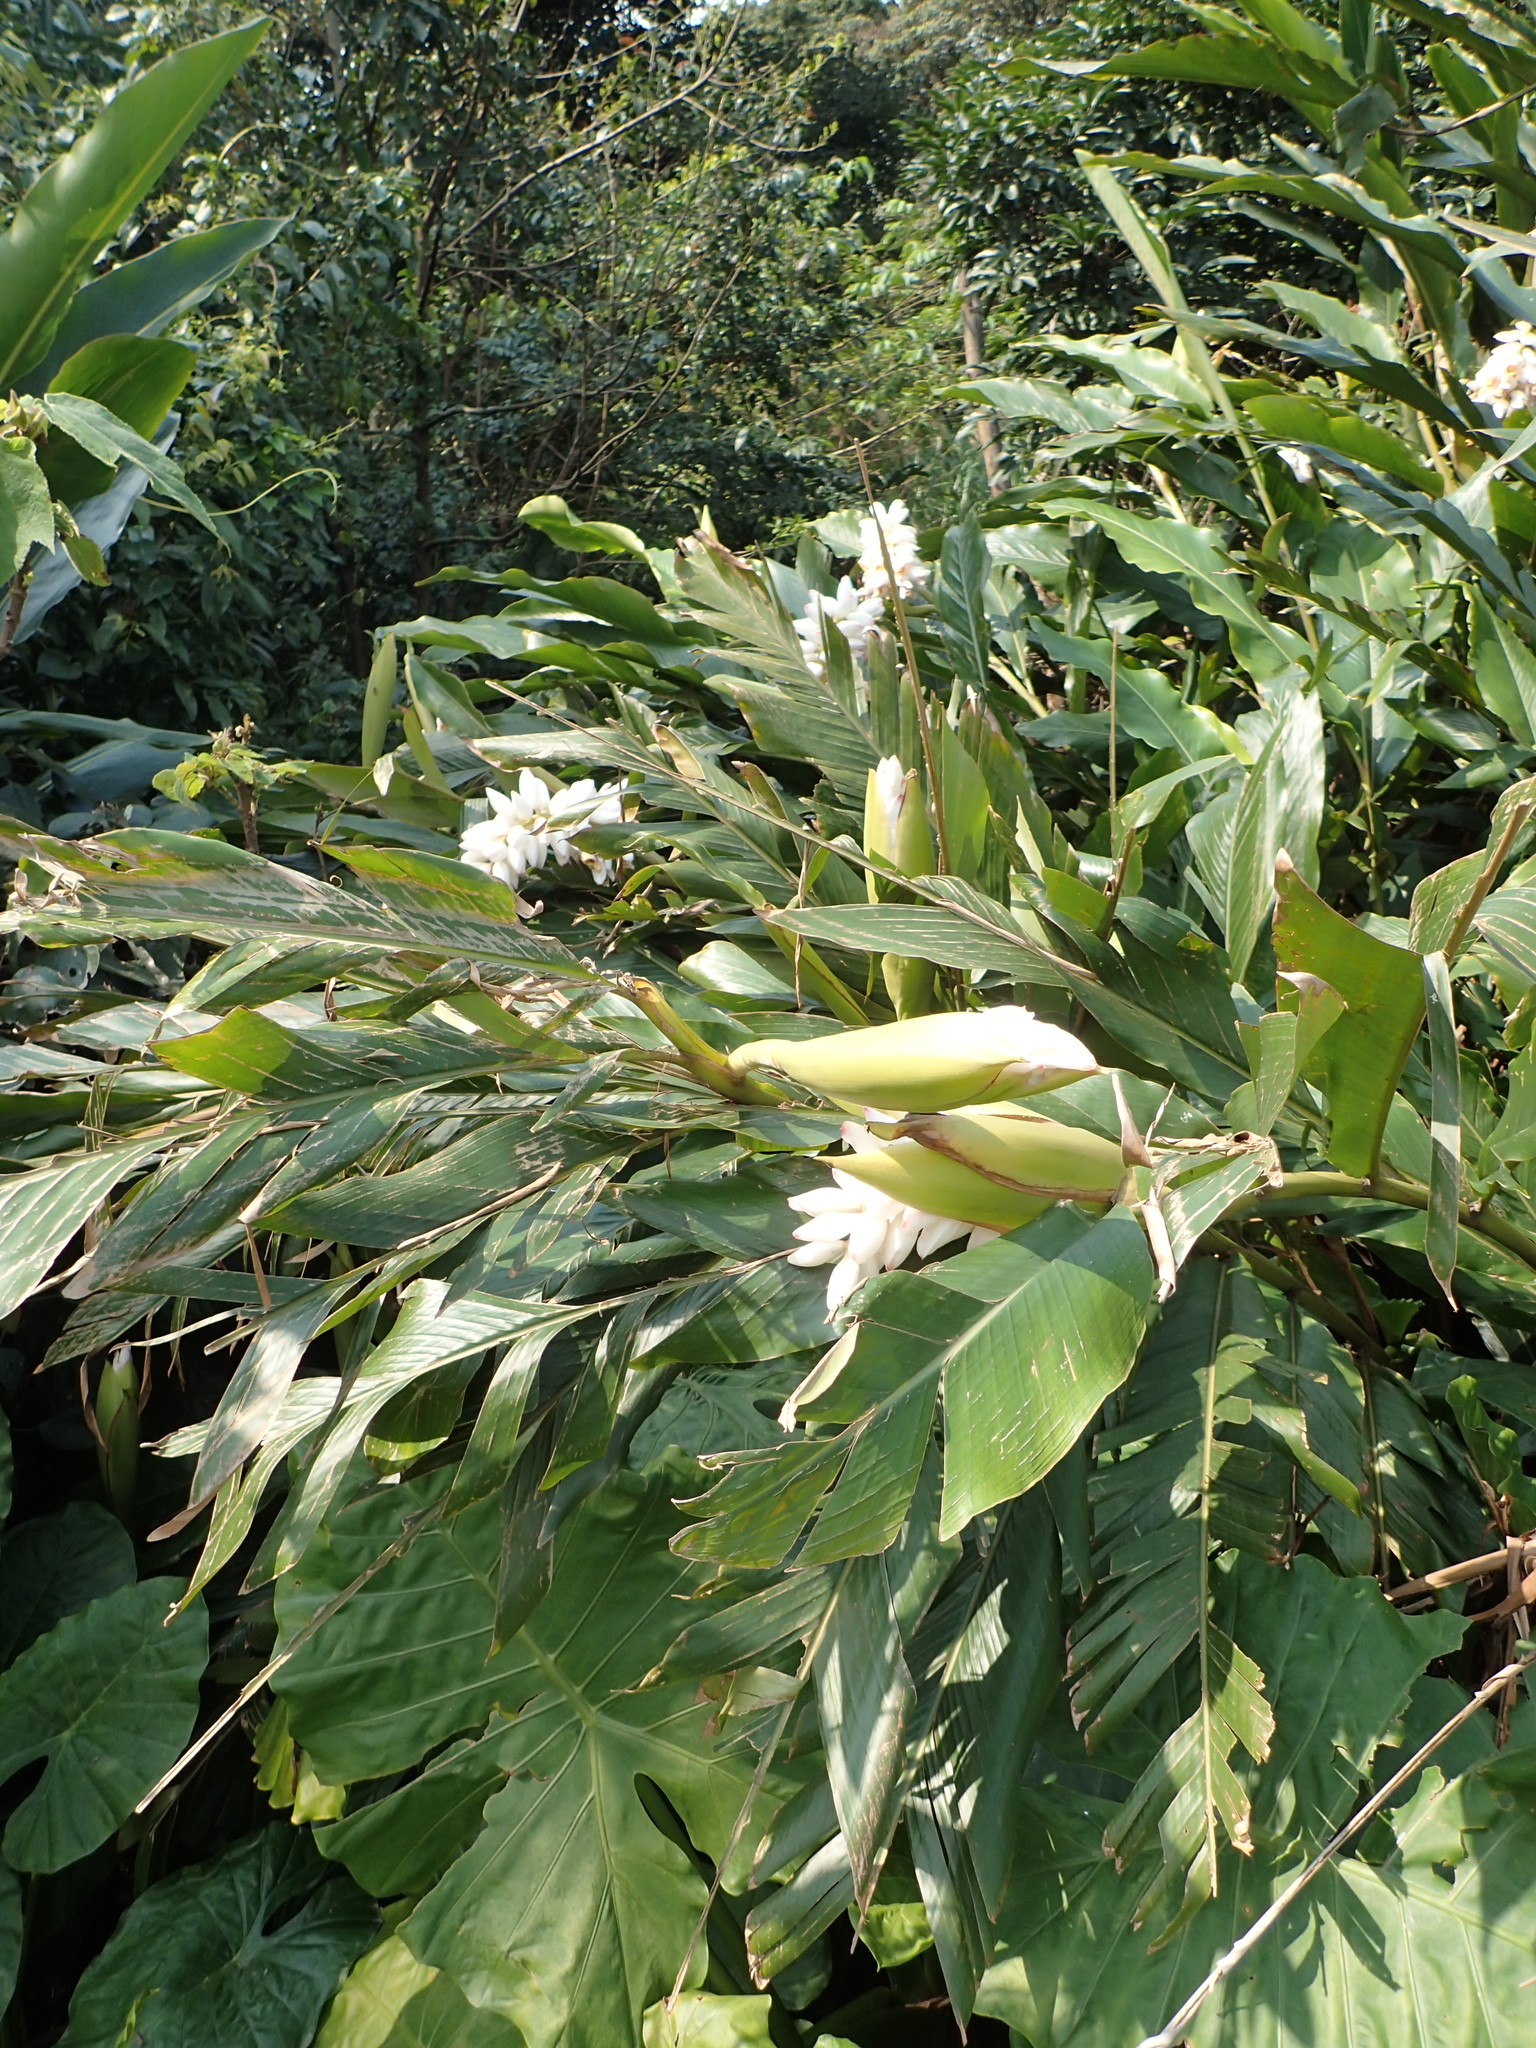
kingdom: Plantae
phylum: Tracheophyta
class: Liliopsida
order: Zingiberales
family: Zingiberaceae
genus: Alpinia
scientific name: Alpinia uraiensis
